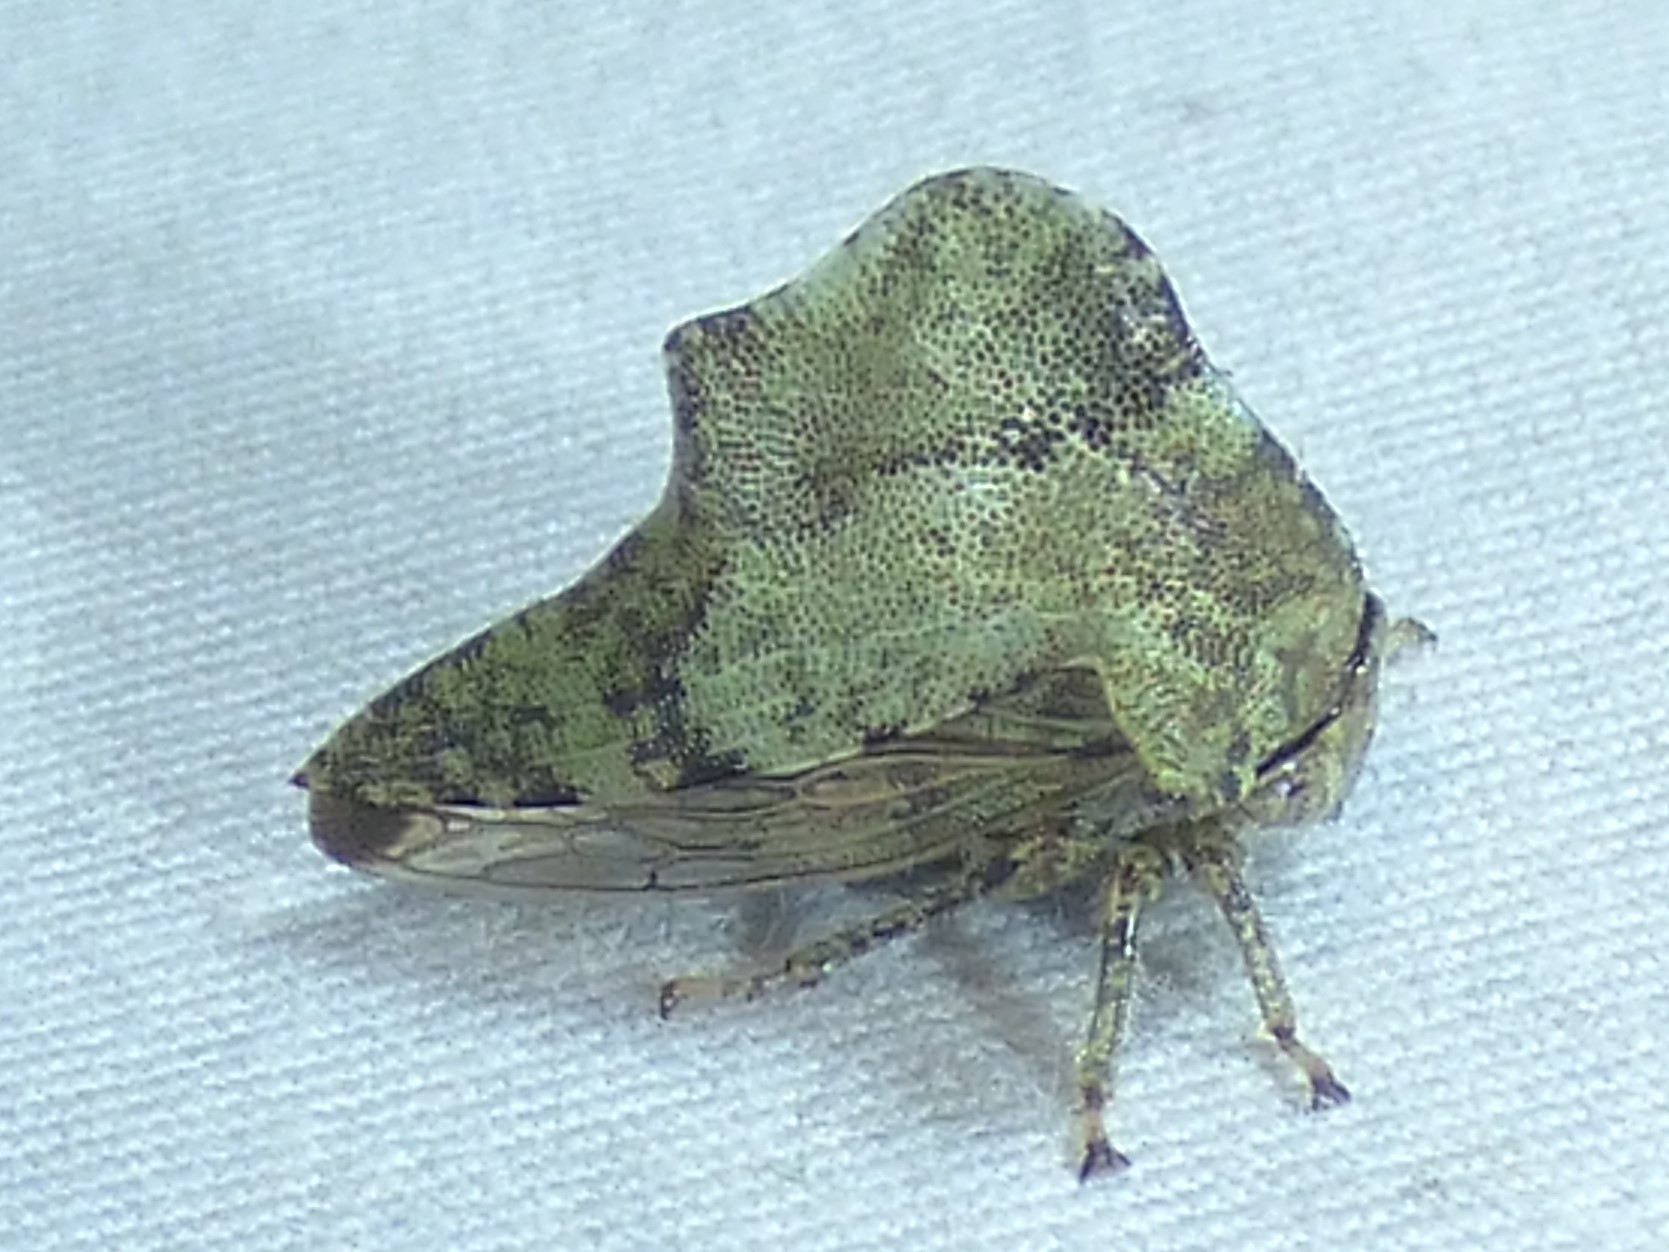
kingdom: Animalia
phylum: Arthropoda
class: Insecta
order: Hemiptera
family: Membracidae
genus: Heliria
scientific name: Heliria cornutula
